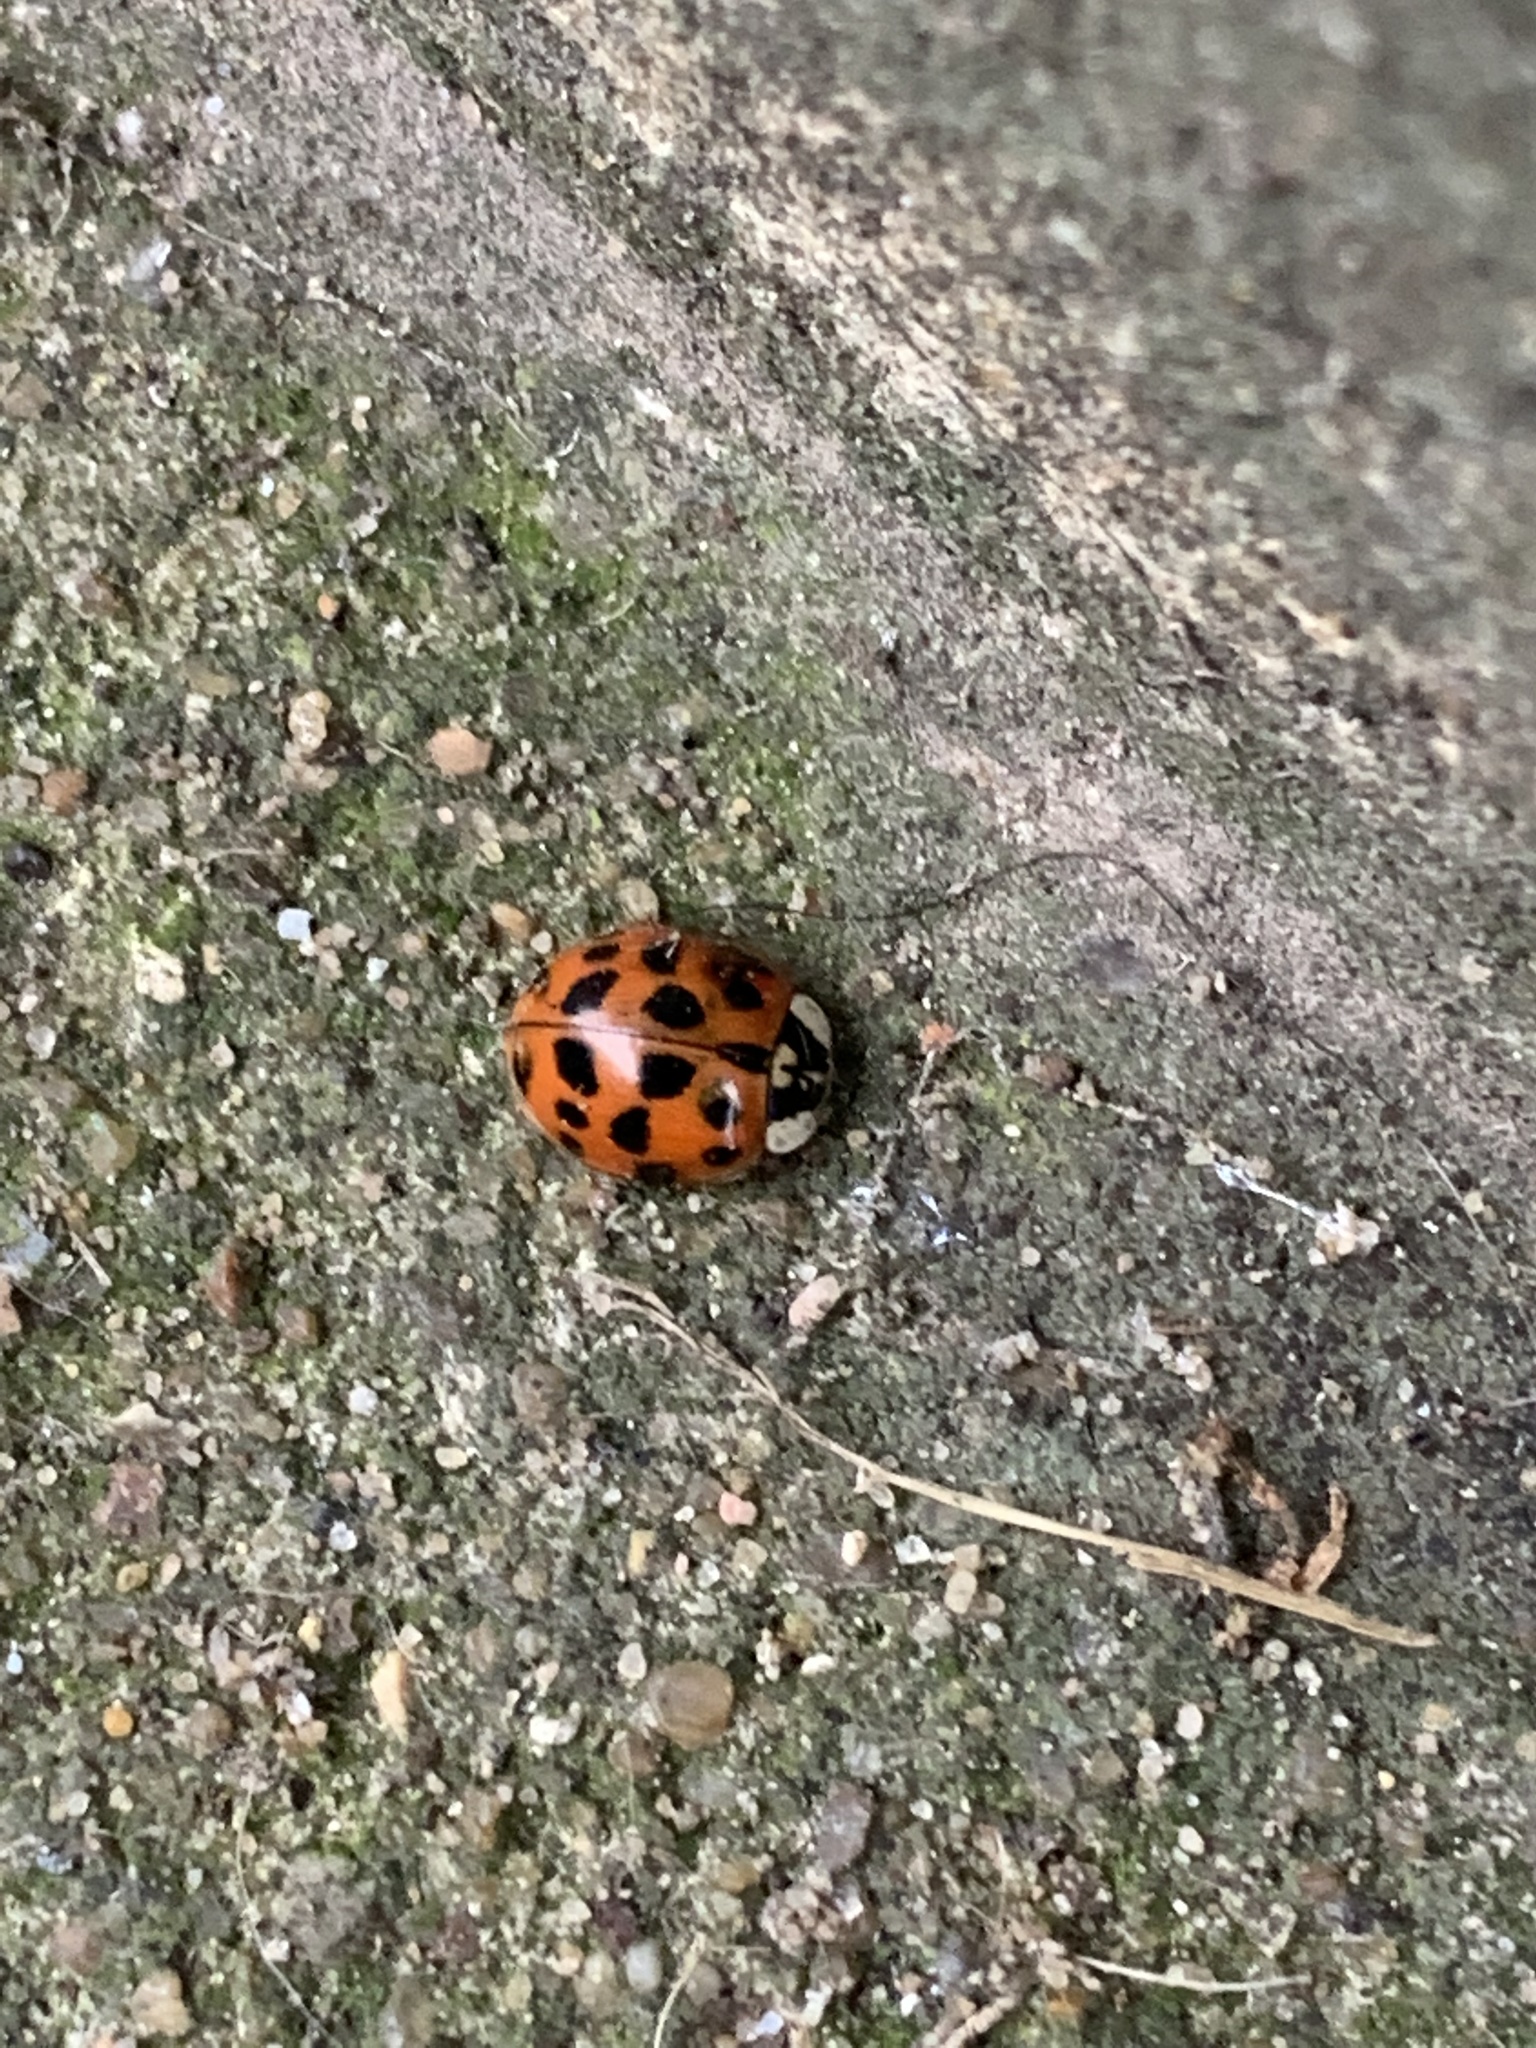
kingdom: Animalia
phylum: Arthropoda
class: Insecta
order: Coleoptera
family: Coccinellidae
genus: Harmonia
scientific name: Harmonia axyridis
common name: Harlequin ladybird
